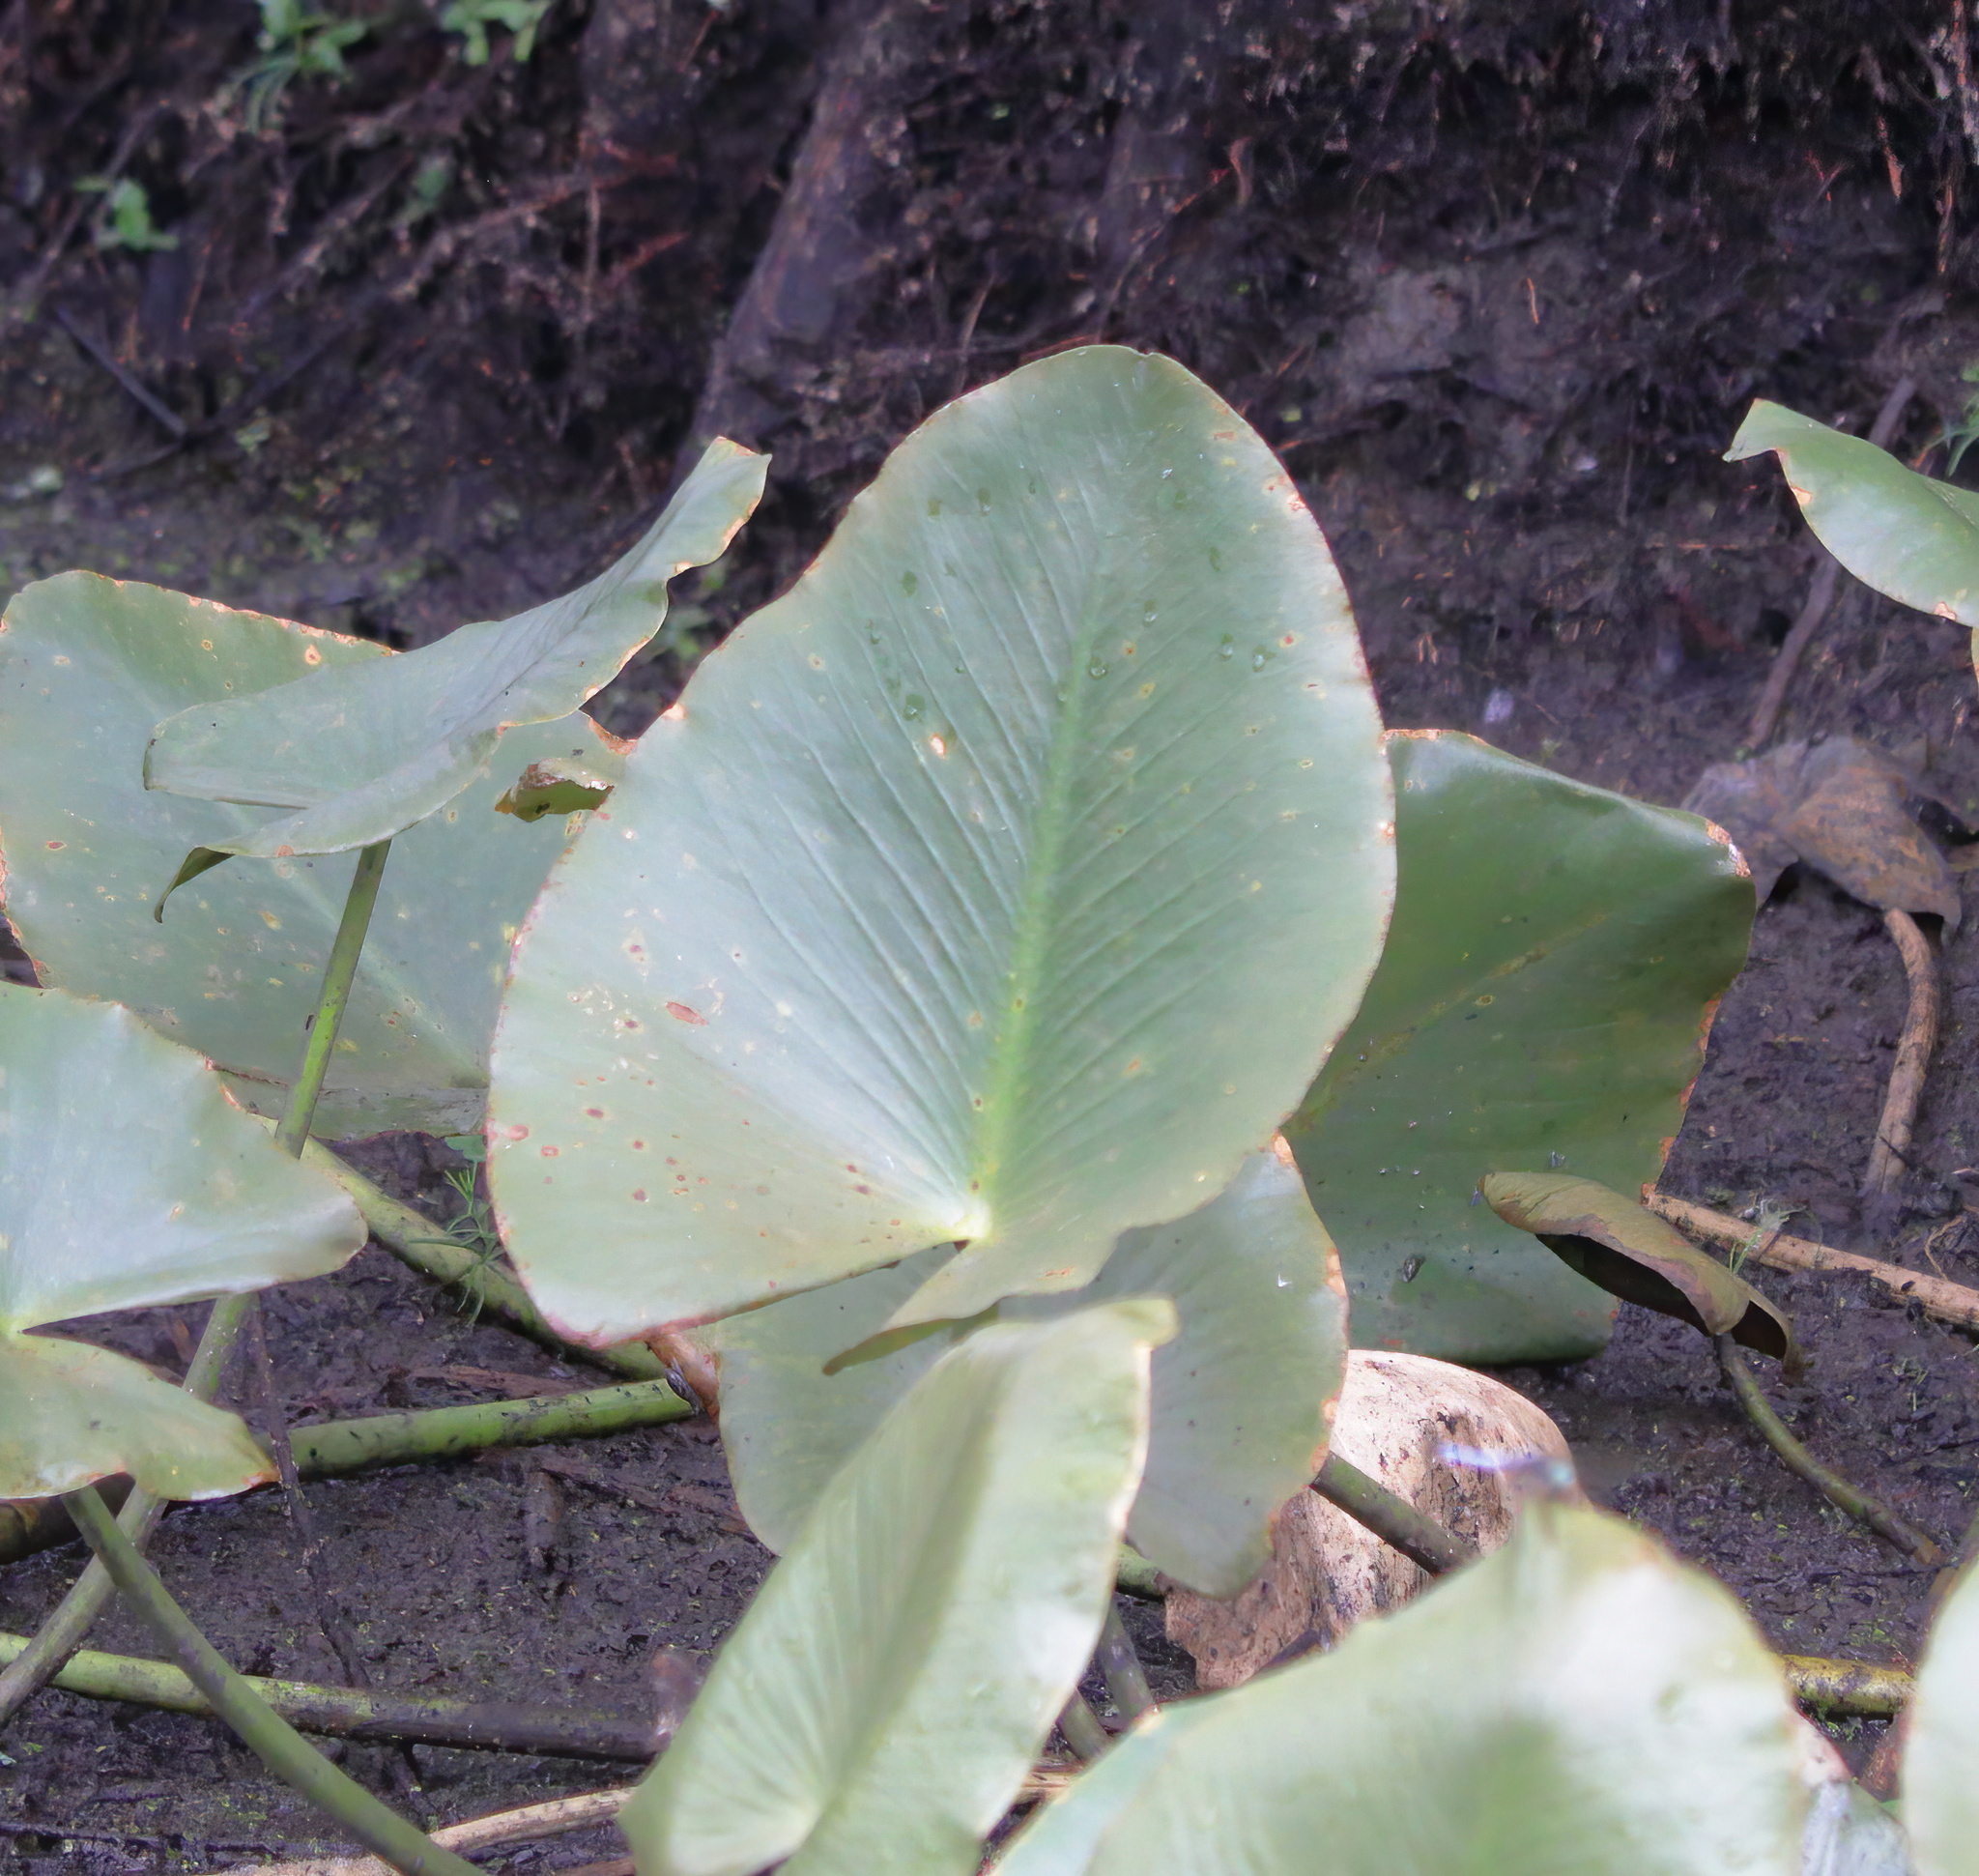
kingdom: Plantae
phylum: Tracheophyta
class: Magnoliopsida
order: Nymphaeales
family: Nymphaeaceae
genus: Nuphar
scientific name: Nuphar advena
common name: Spatter-dock
